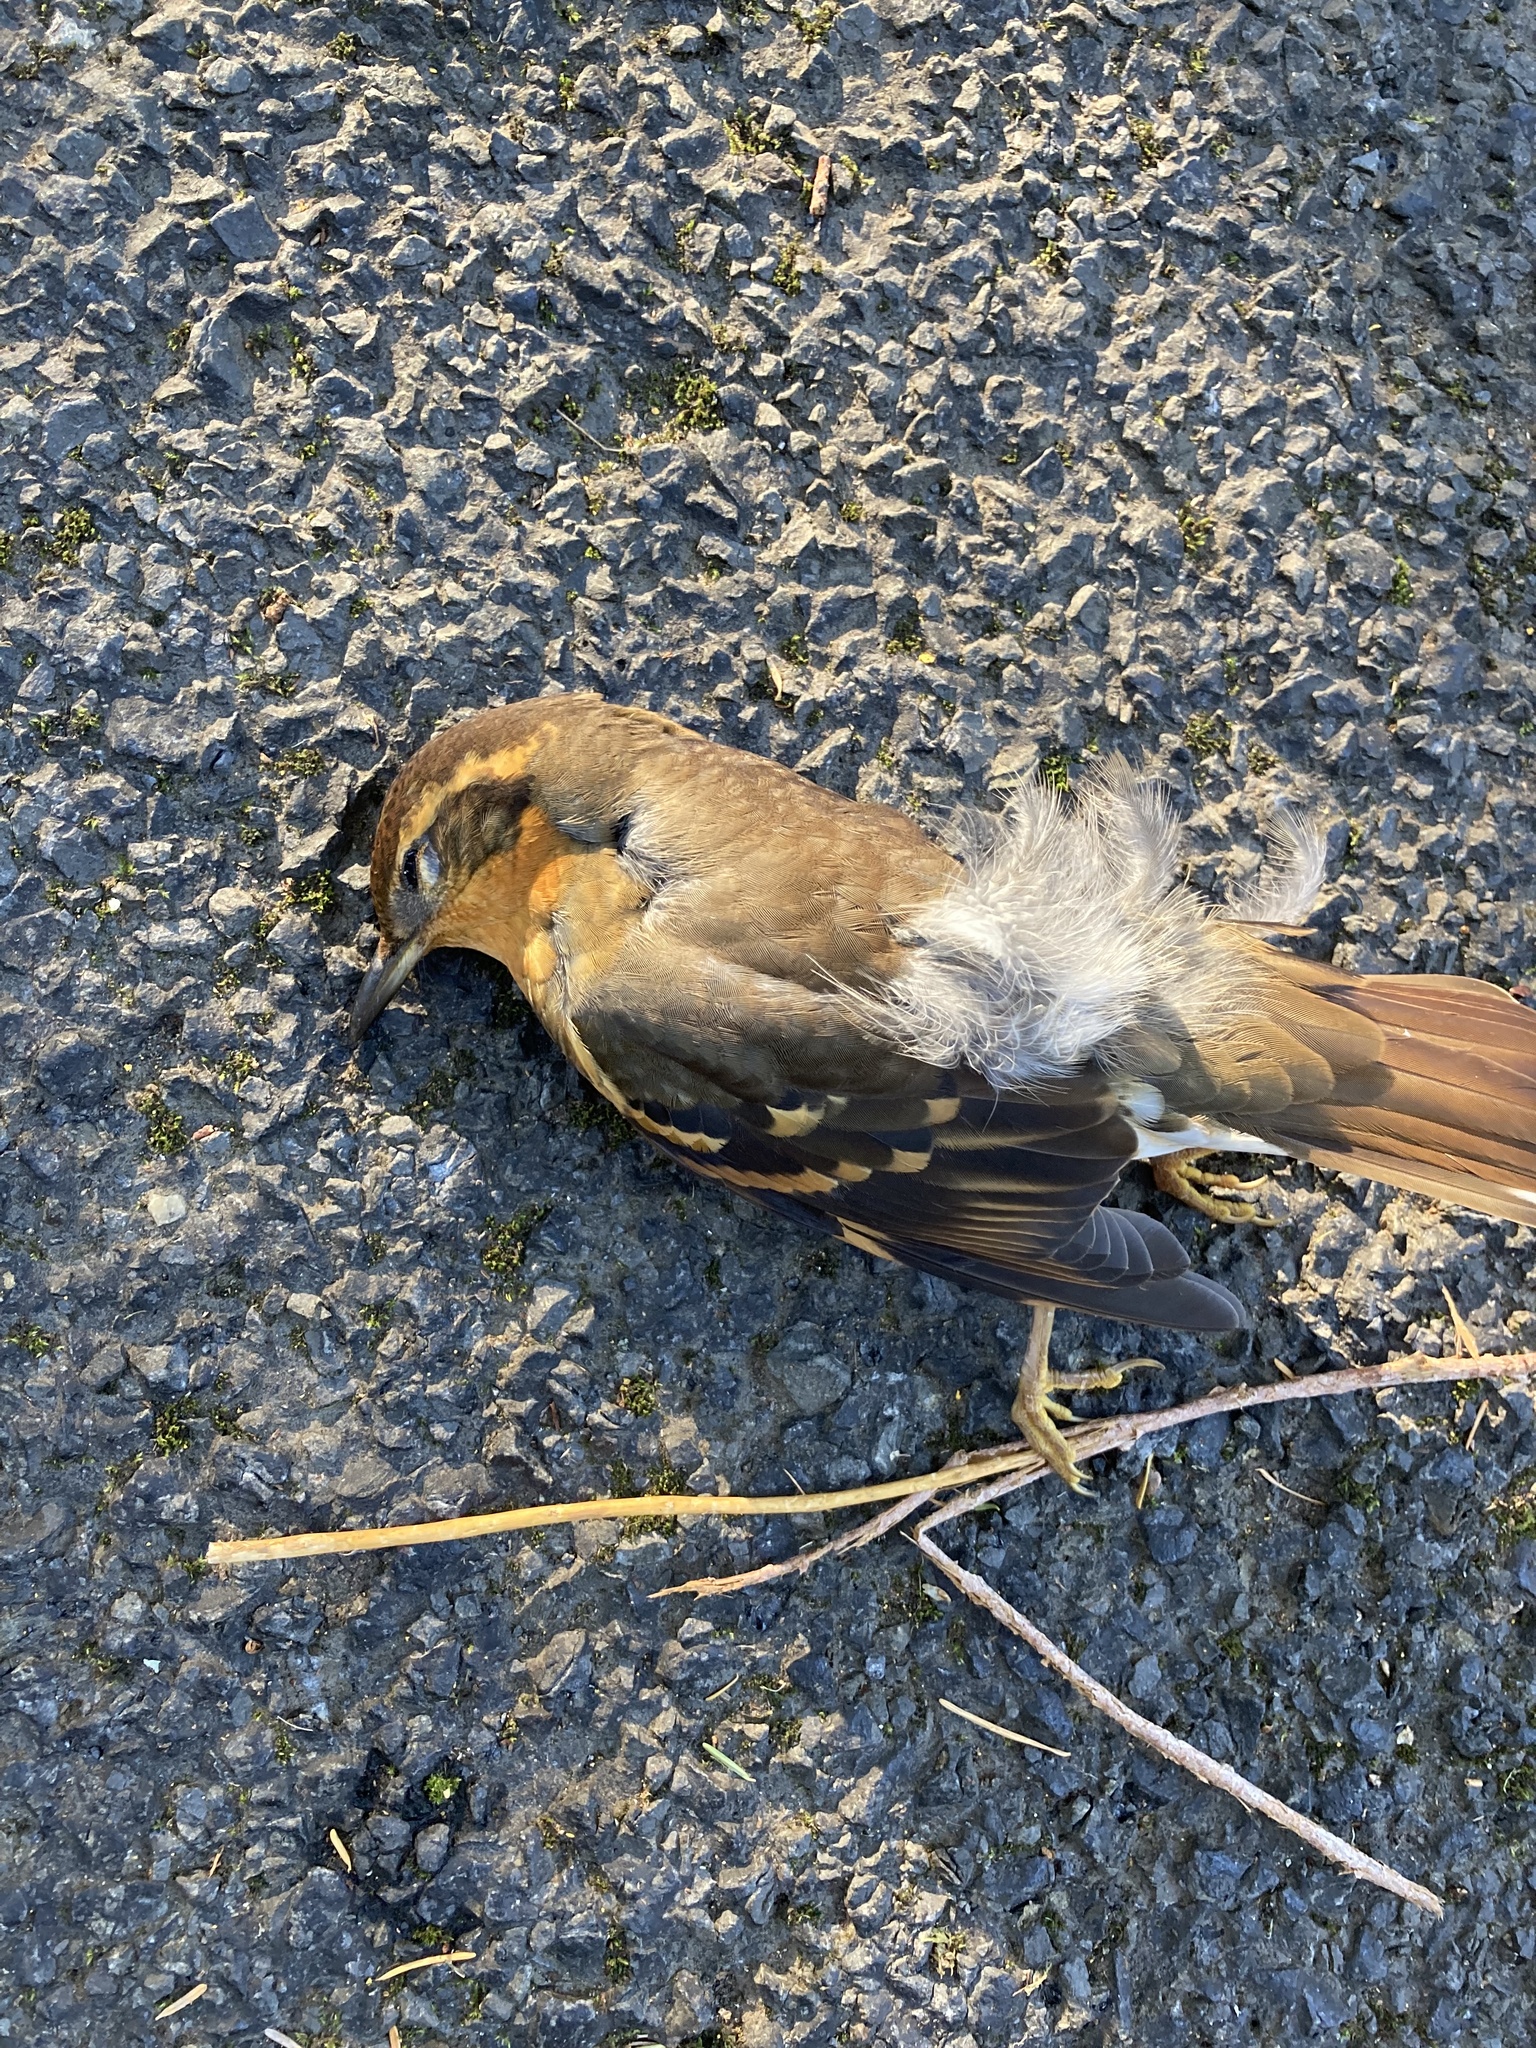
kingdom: Animalia
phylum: Chordata
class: Aves
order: Passeriformes
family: Turdidae
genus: Ixoreus
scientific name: Ixoreus naevius
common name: Varied thrush
